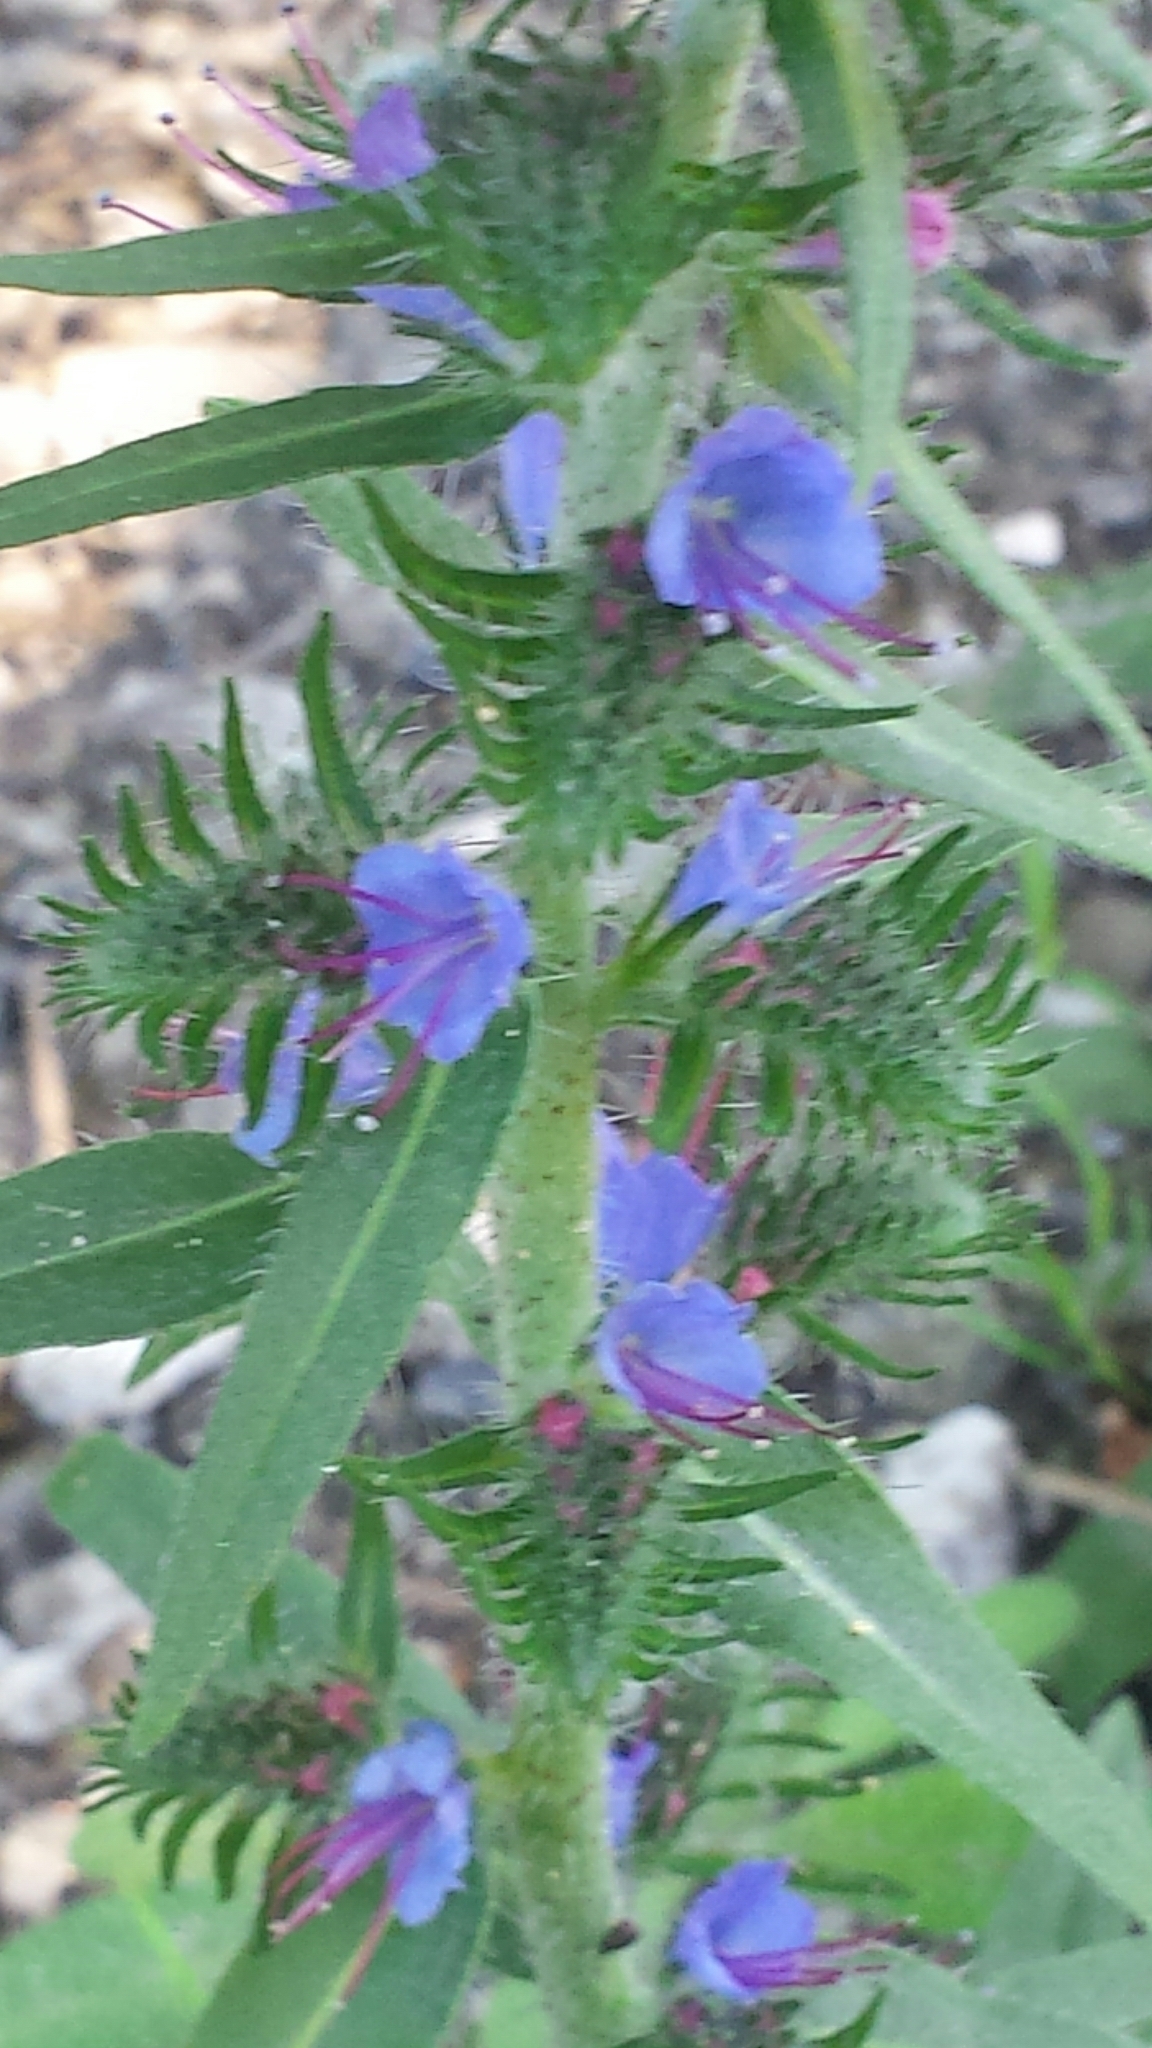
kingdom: Plantae
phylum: Tracheophyta
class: Magnoliopsida
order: Boraginales
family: Boraginaceae
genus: Echium
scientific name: Echium vulgare
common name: Common viper's bugloss
